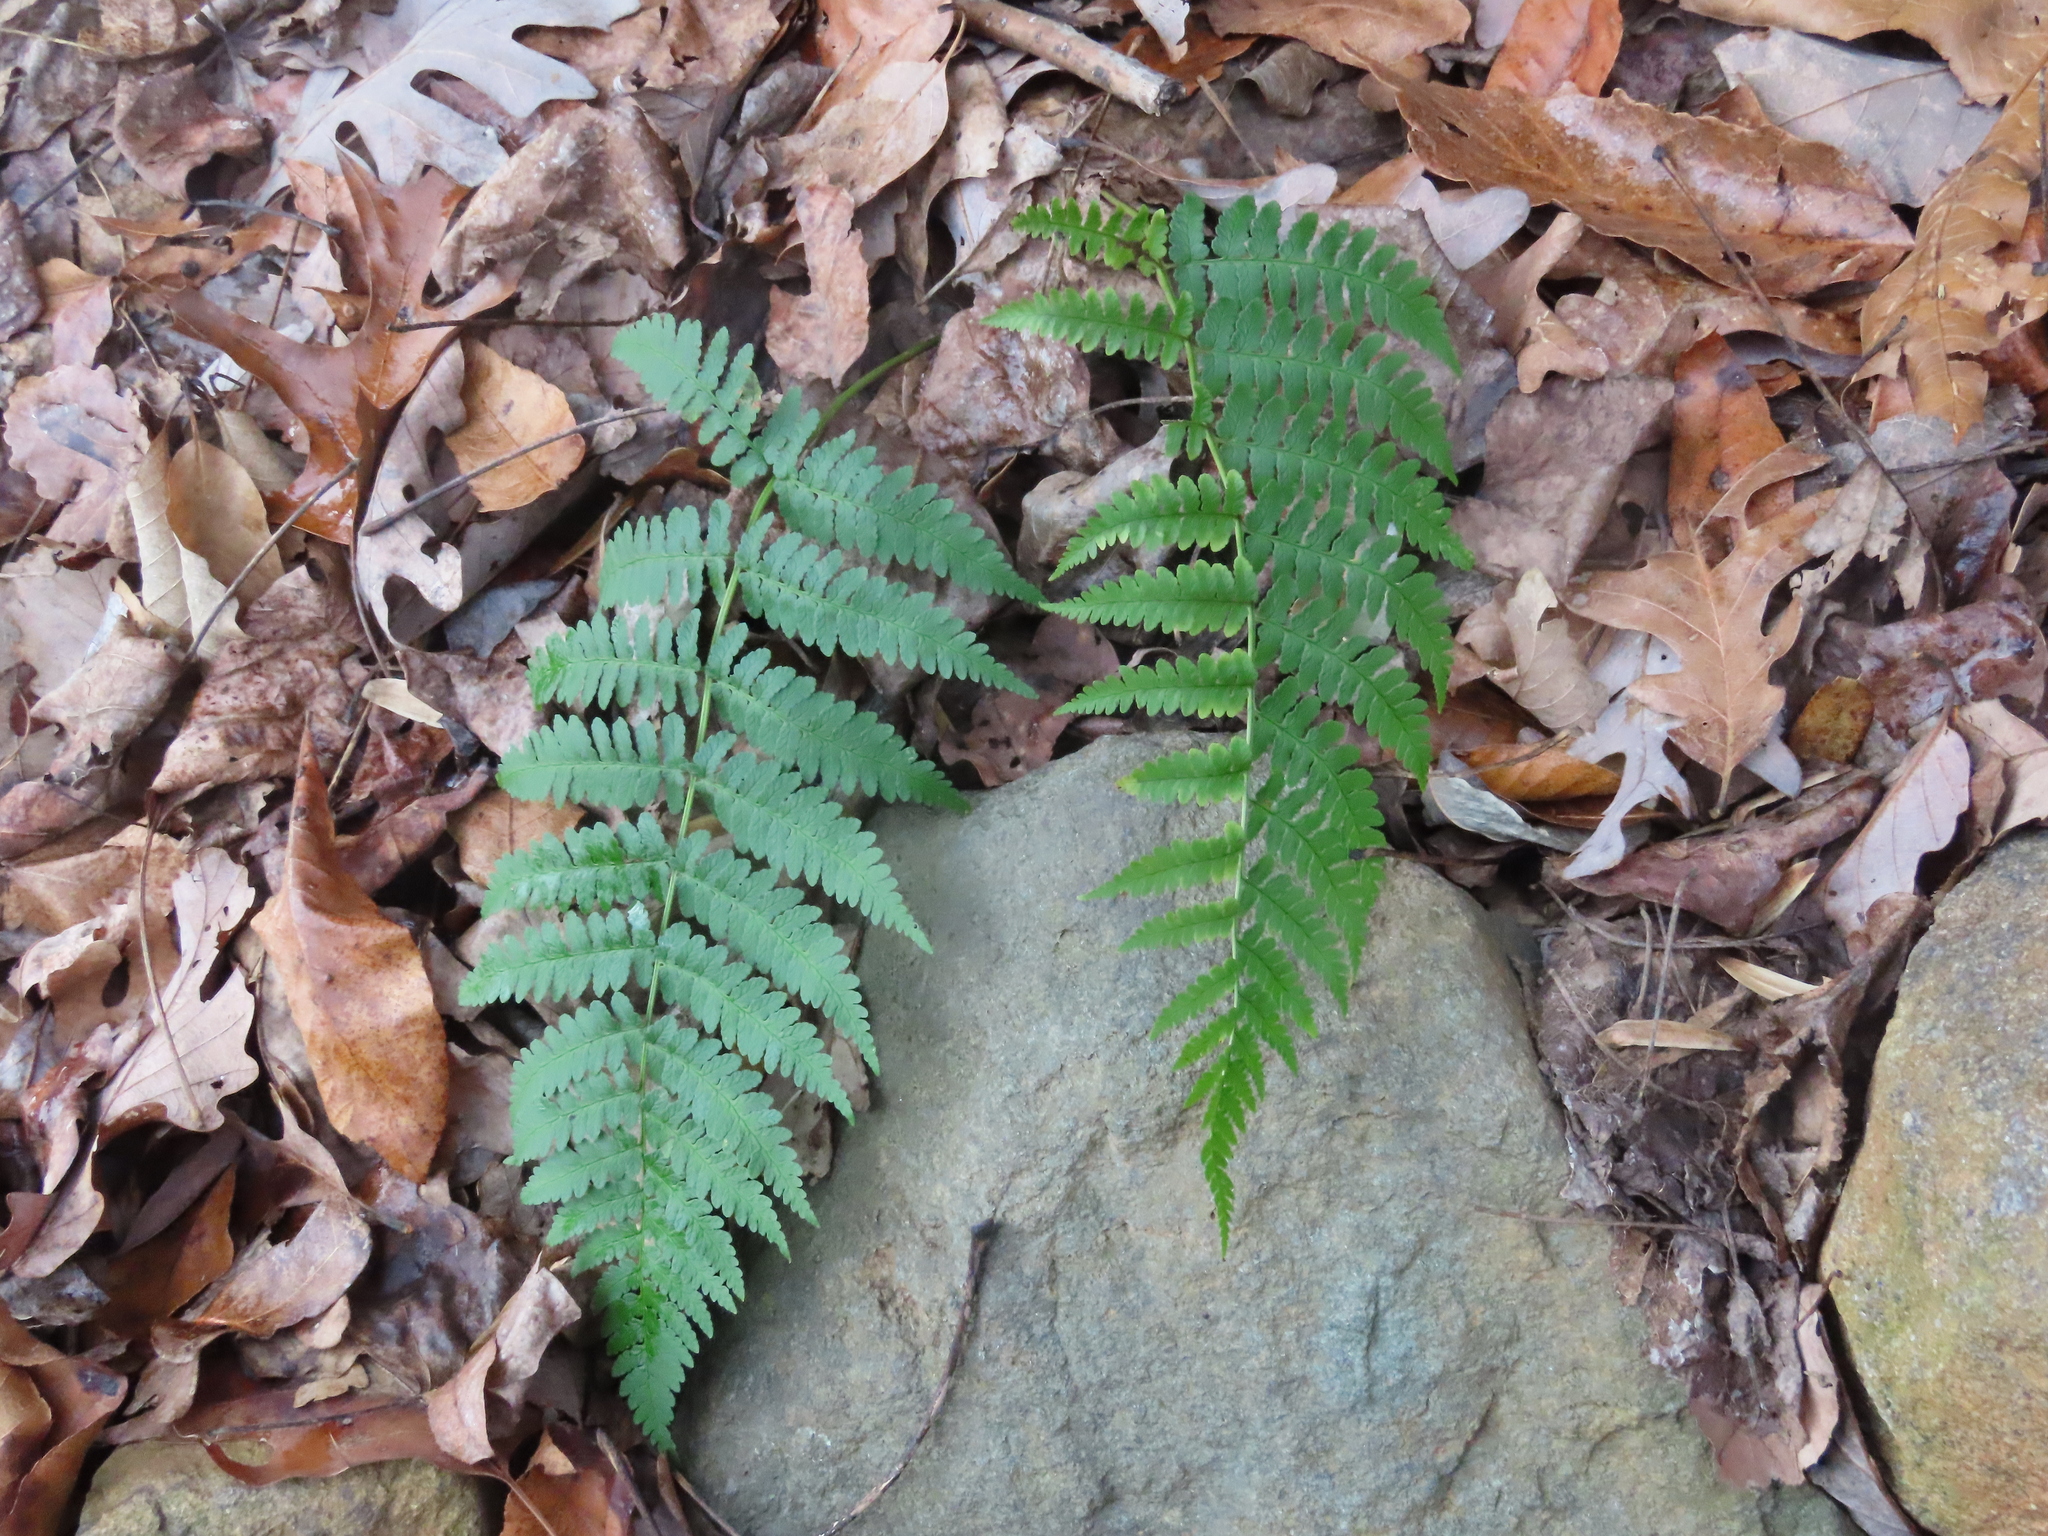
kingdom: Plantae
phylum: Tracheophyta
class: Polypodiopsida
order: Polypodiales
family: Dryopteridaceae
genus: Dryopteris
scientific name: Dryopteris marginalis
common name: Marginal wood fern
